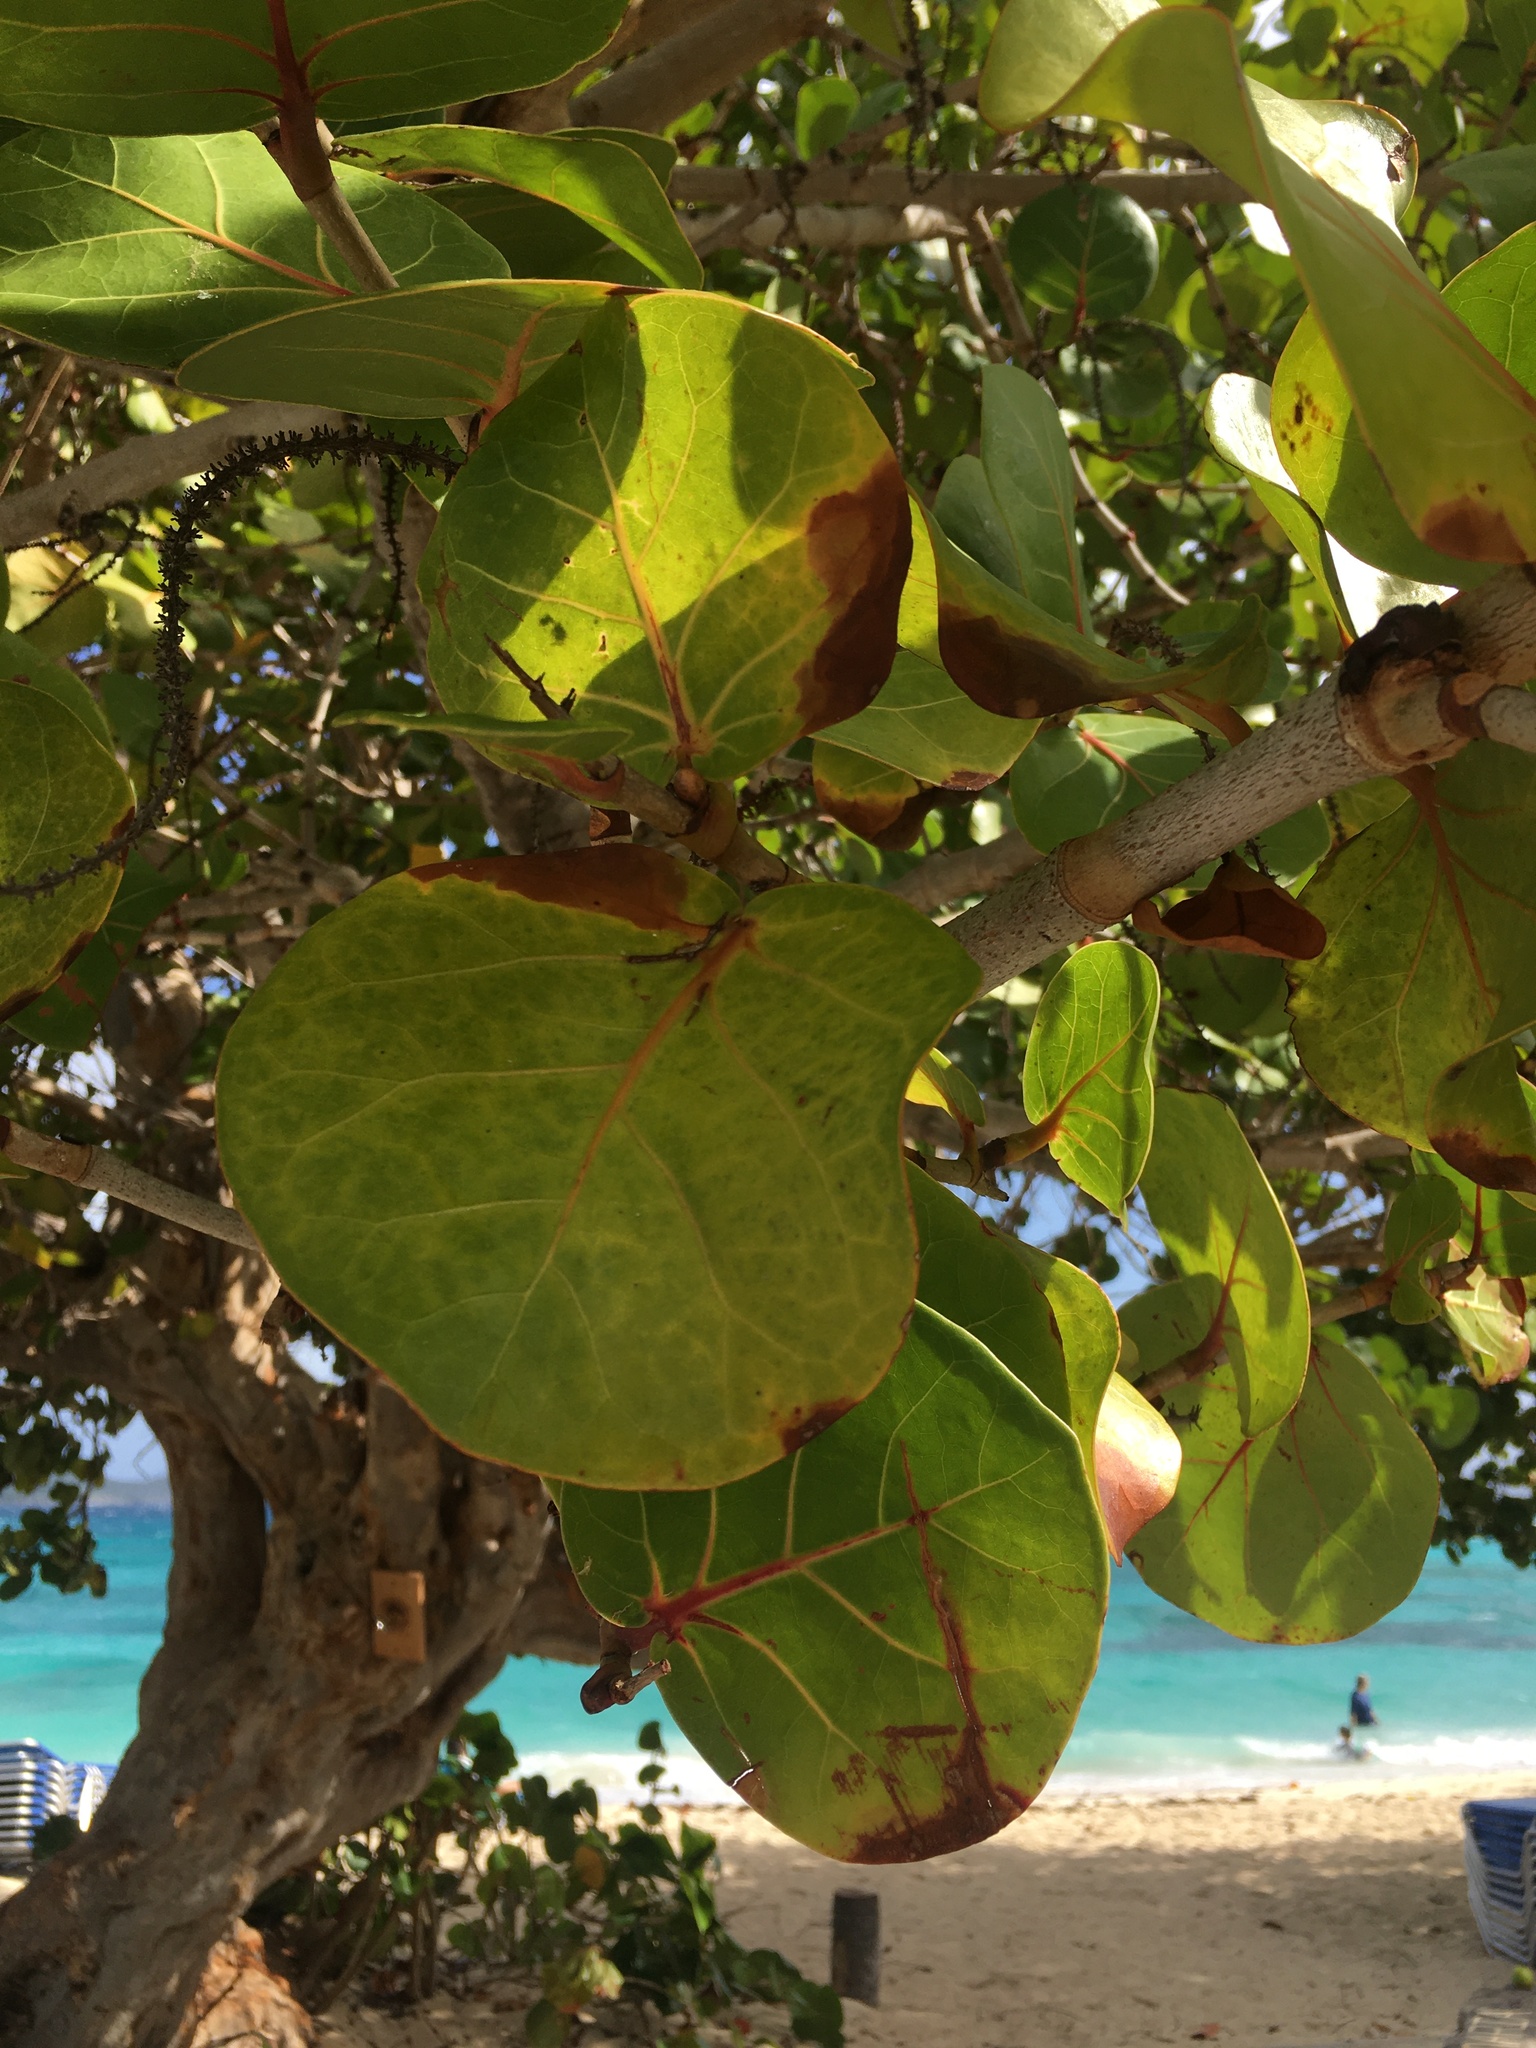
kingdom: Plantae
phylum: Tracheophyta
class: Magnoliopsida
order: Caryophyllales
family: Polygonaceae
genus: Coccoloba
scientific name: Coccoloba uvifera
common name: Seagrape
